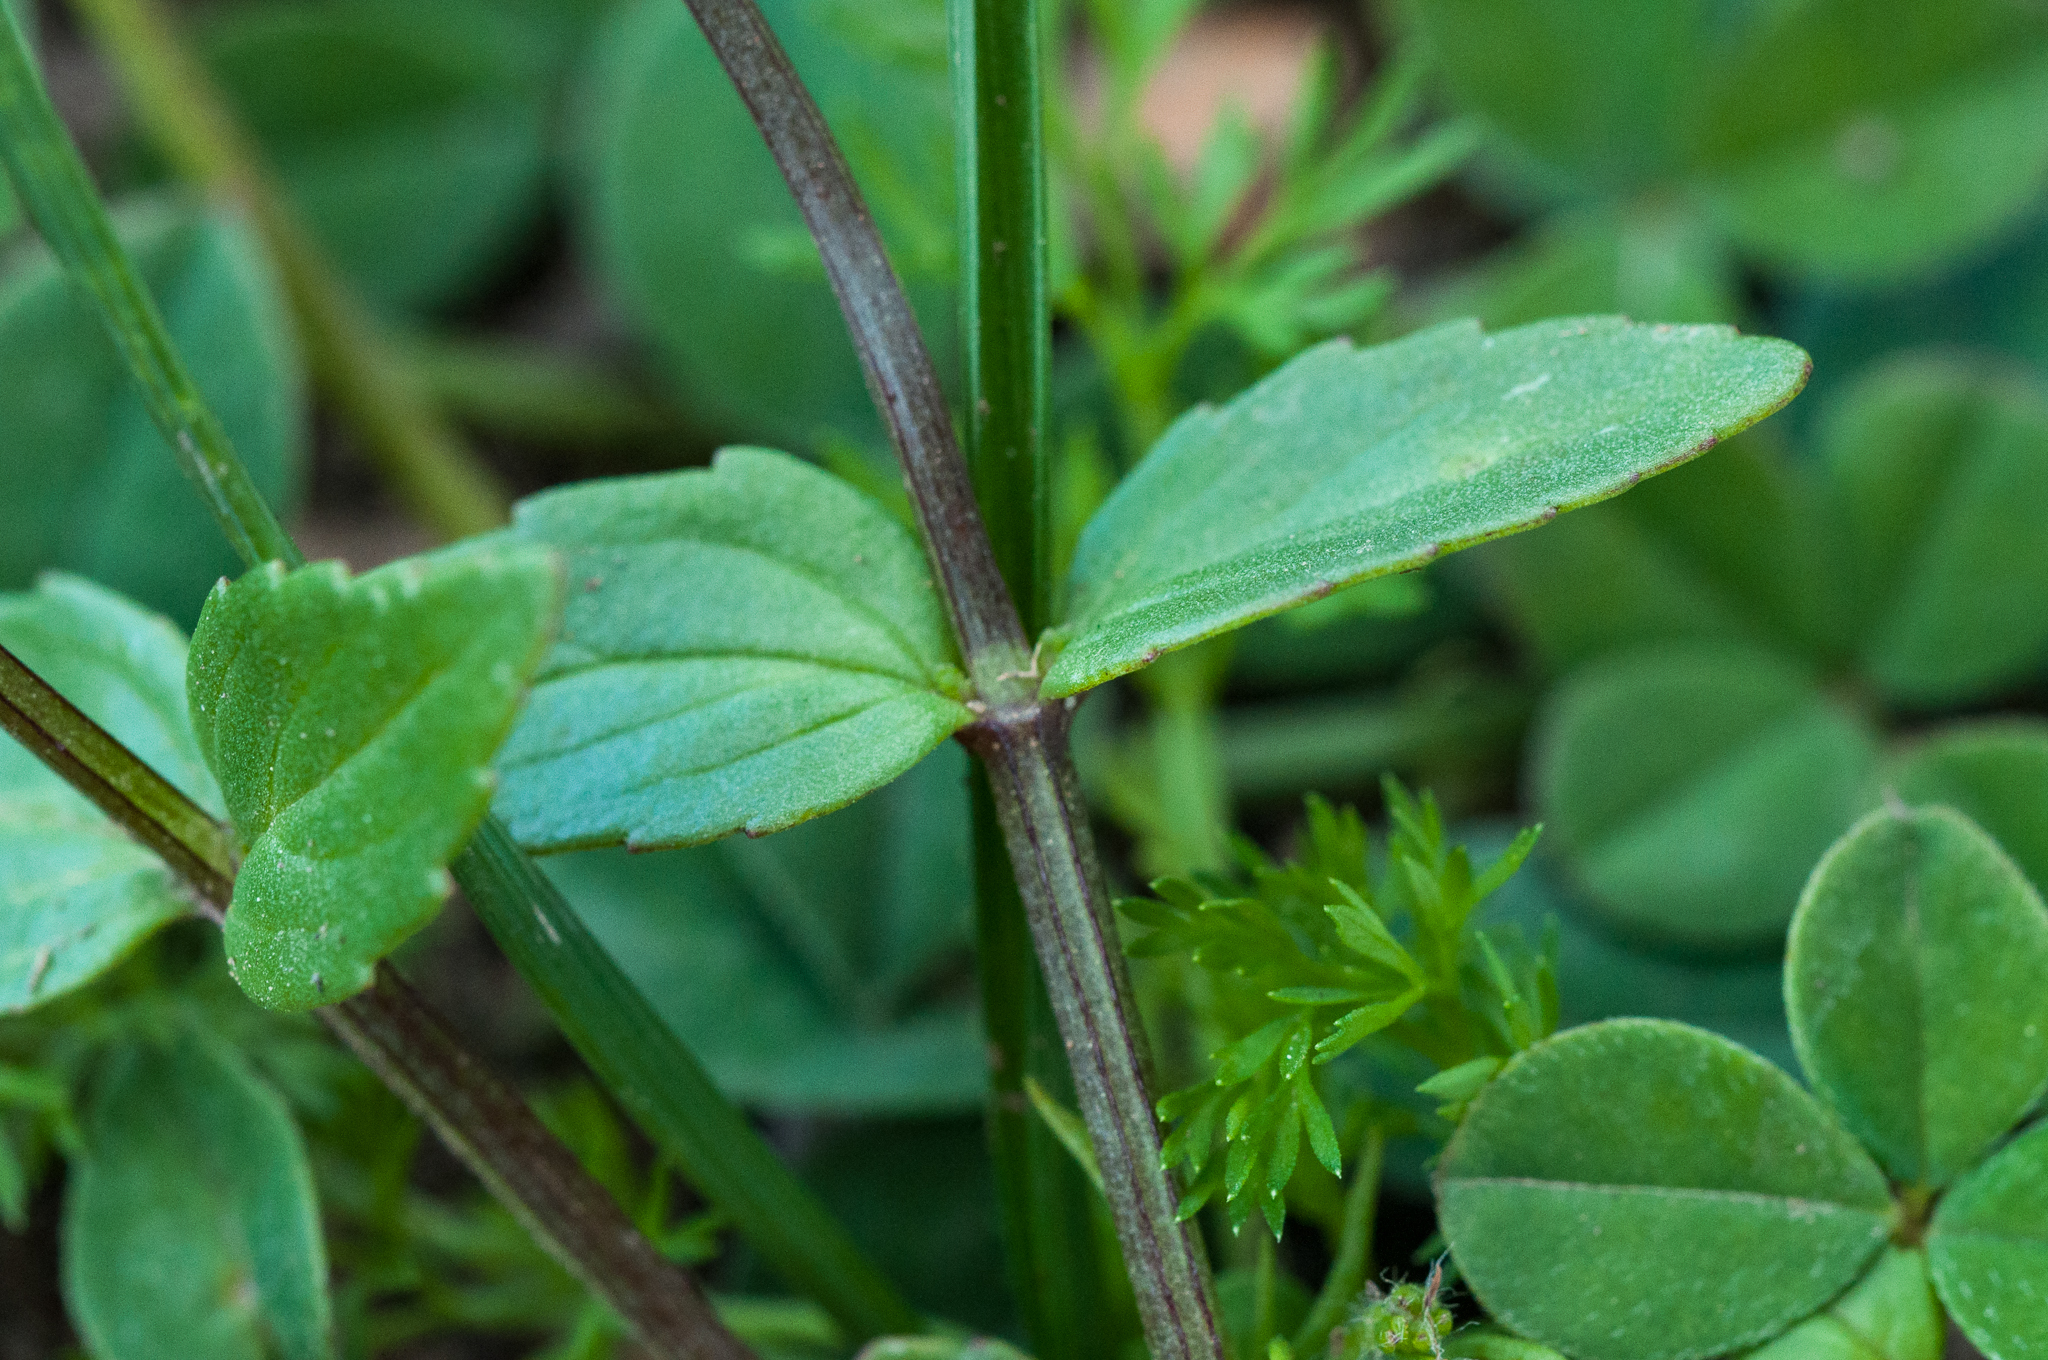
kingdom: Plantae
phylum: Tracheophyta
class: Magnoliopsida
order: Lamiales
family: Scrophulariaceae
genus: Nemesia
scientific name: Nemesia lucida
